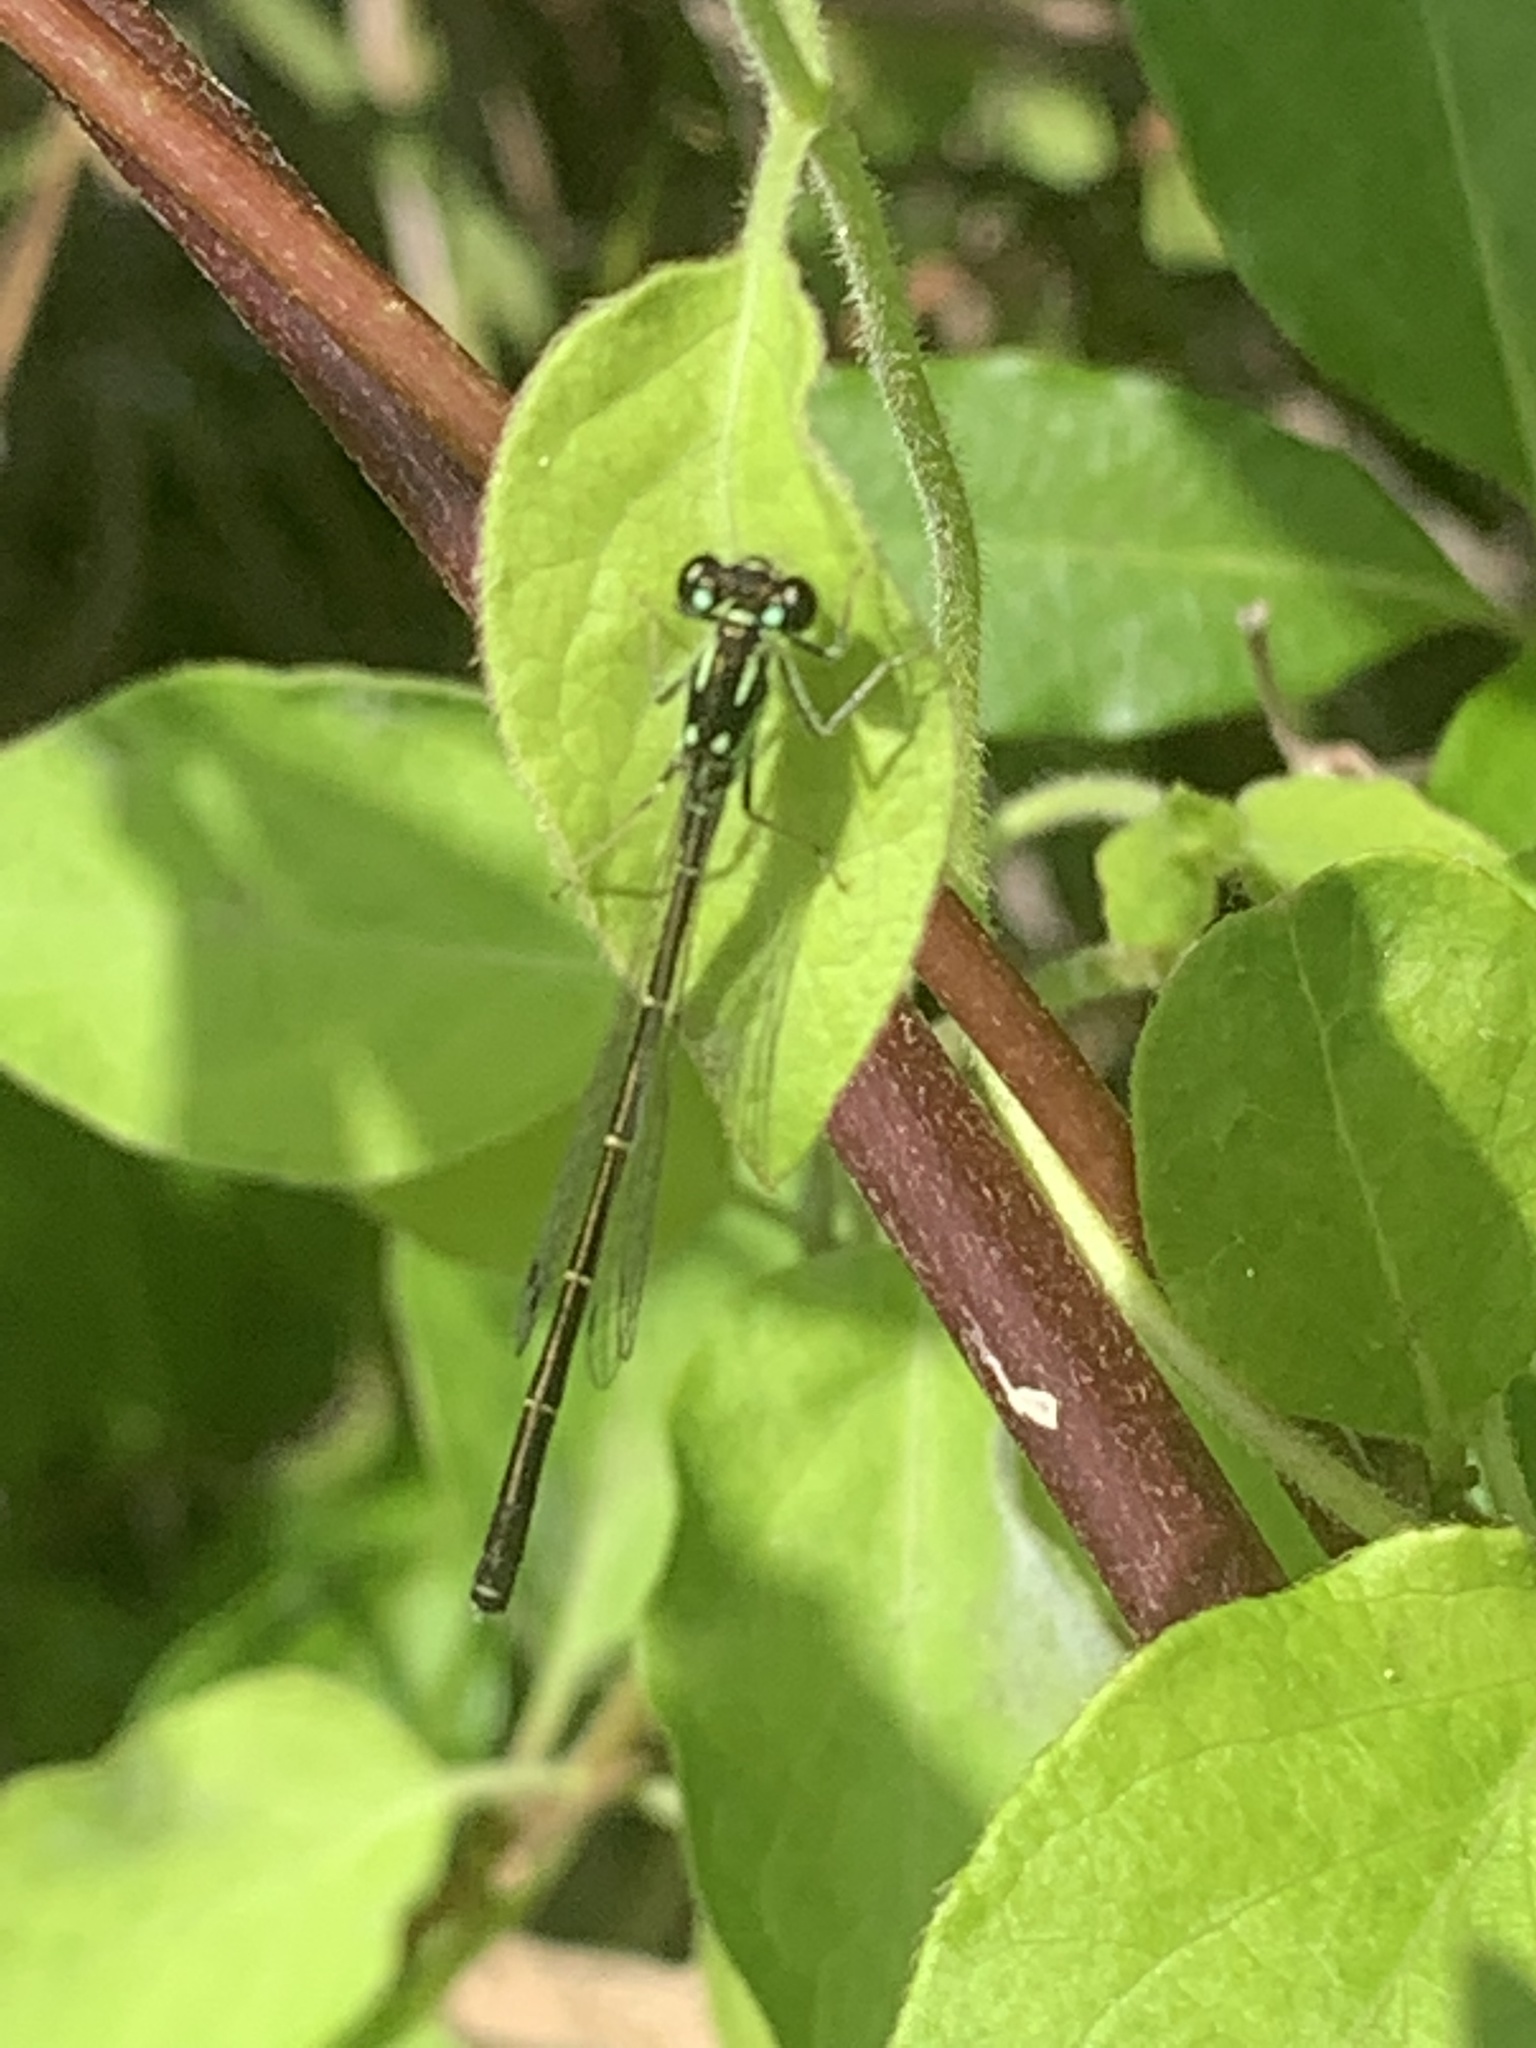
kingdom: Animalia
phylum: Arthropoda
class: Insecta
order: Odonata
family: Coenagrionidae
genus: Ischnura
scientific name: Ischnura posita
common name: Fragile forktail
